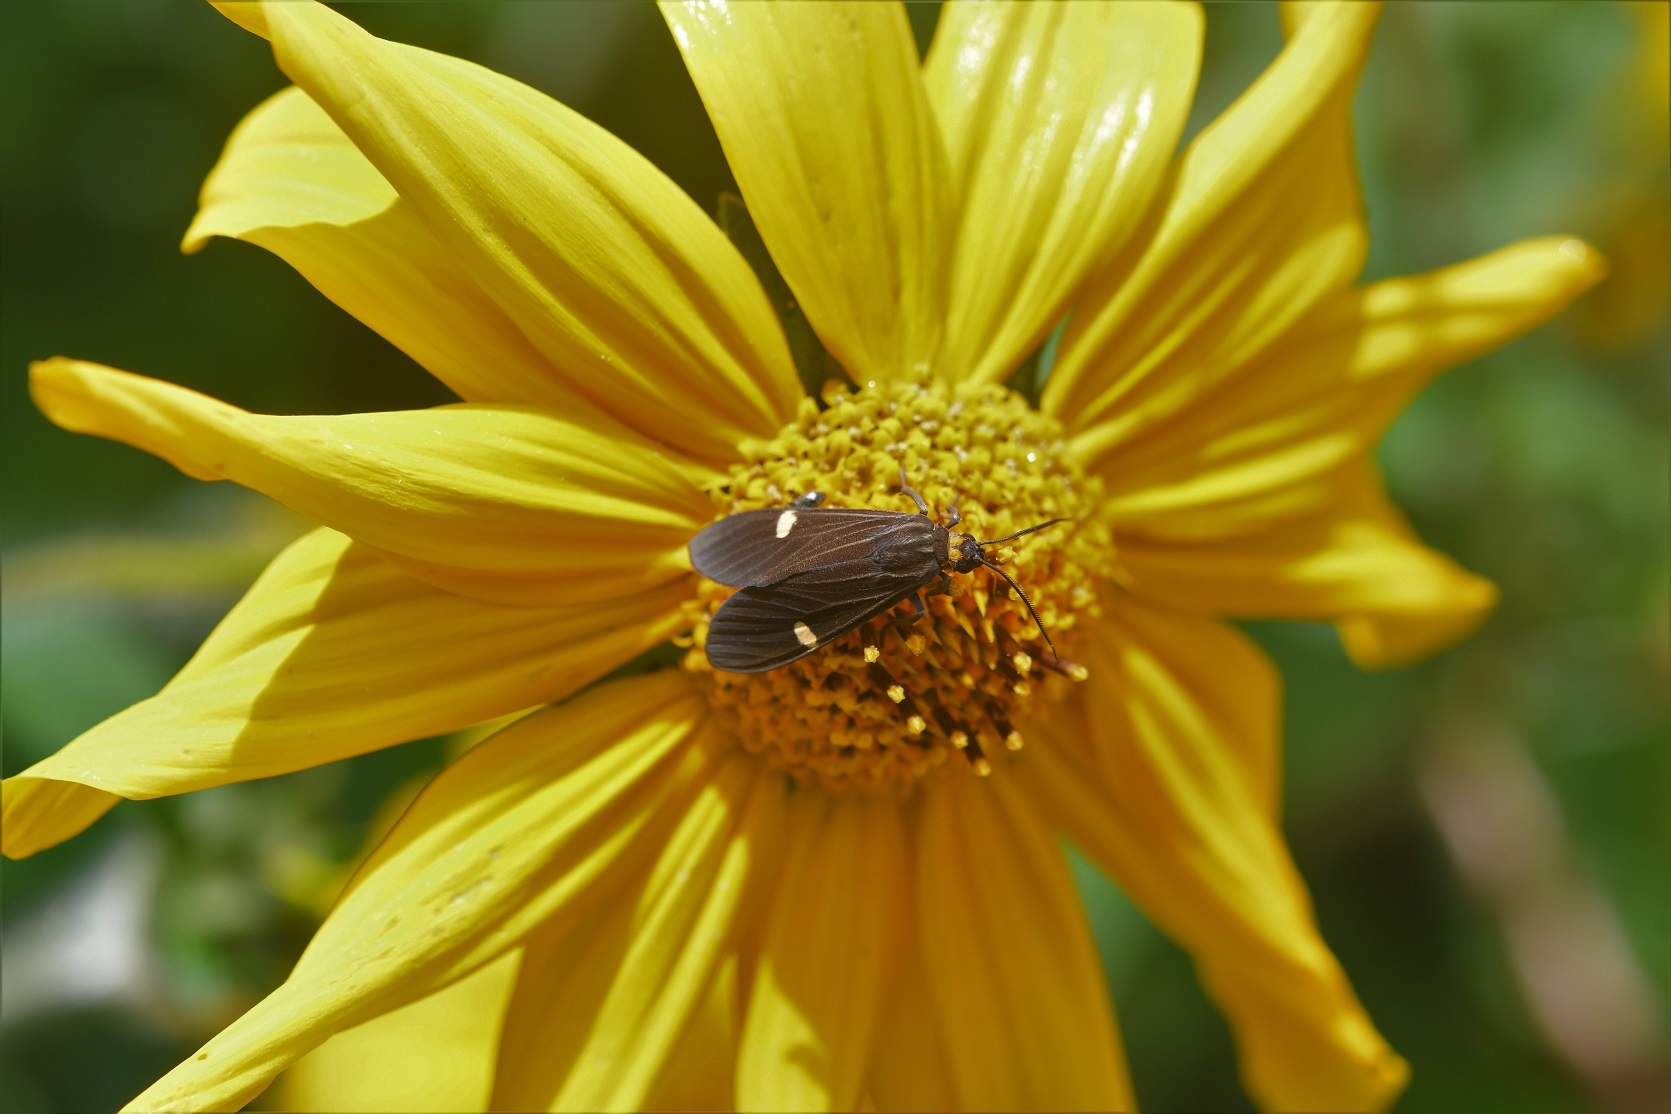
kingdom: Animalia
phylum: Arthropoda
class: Insecta
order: Lepidoptera
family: Erebidae
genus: Aclytia
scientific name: Aclytia heber
